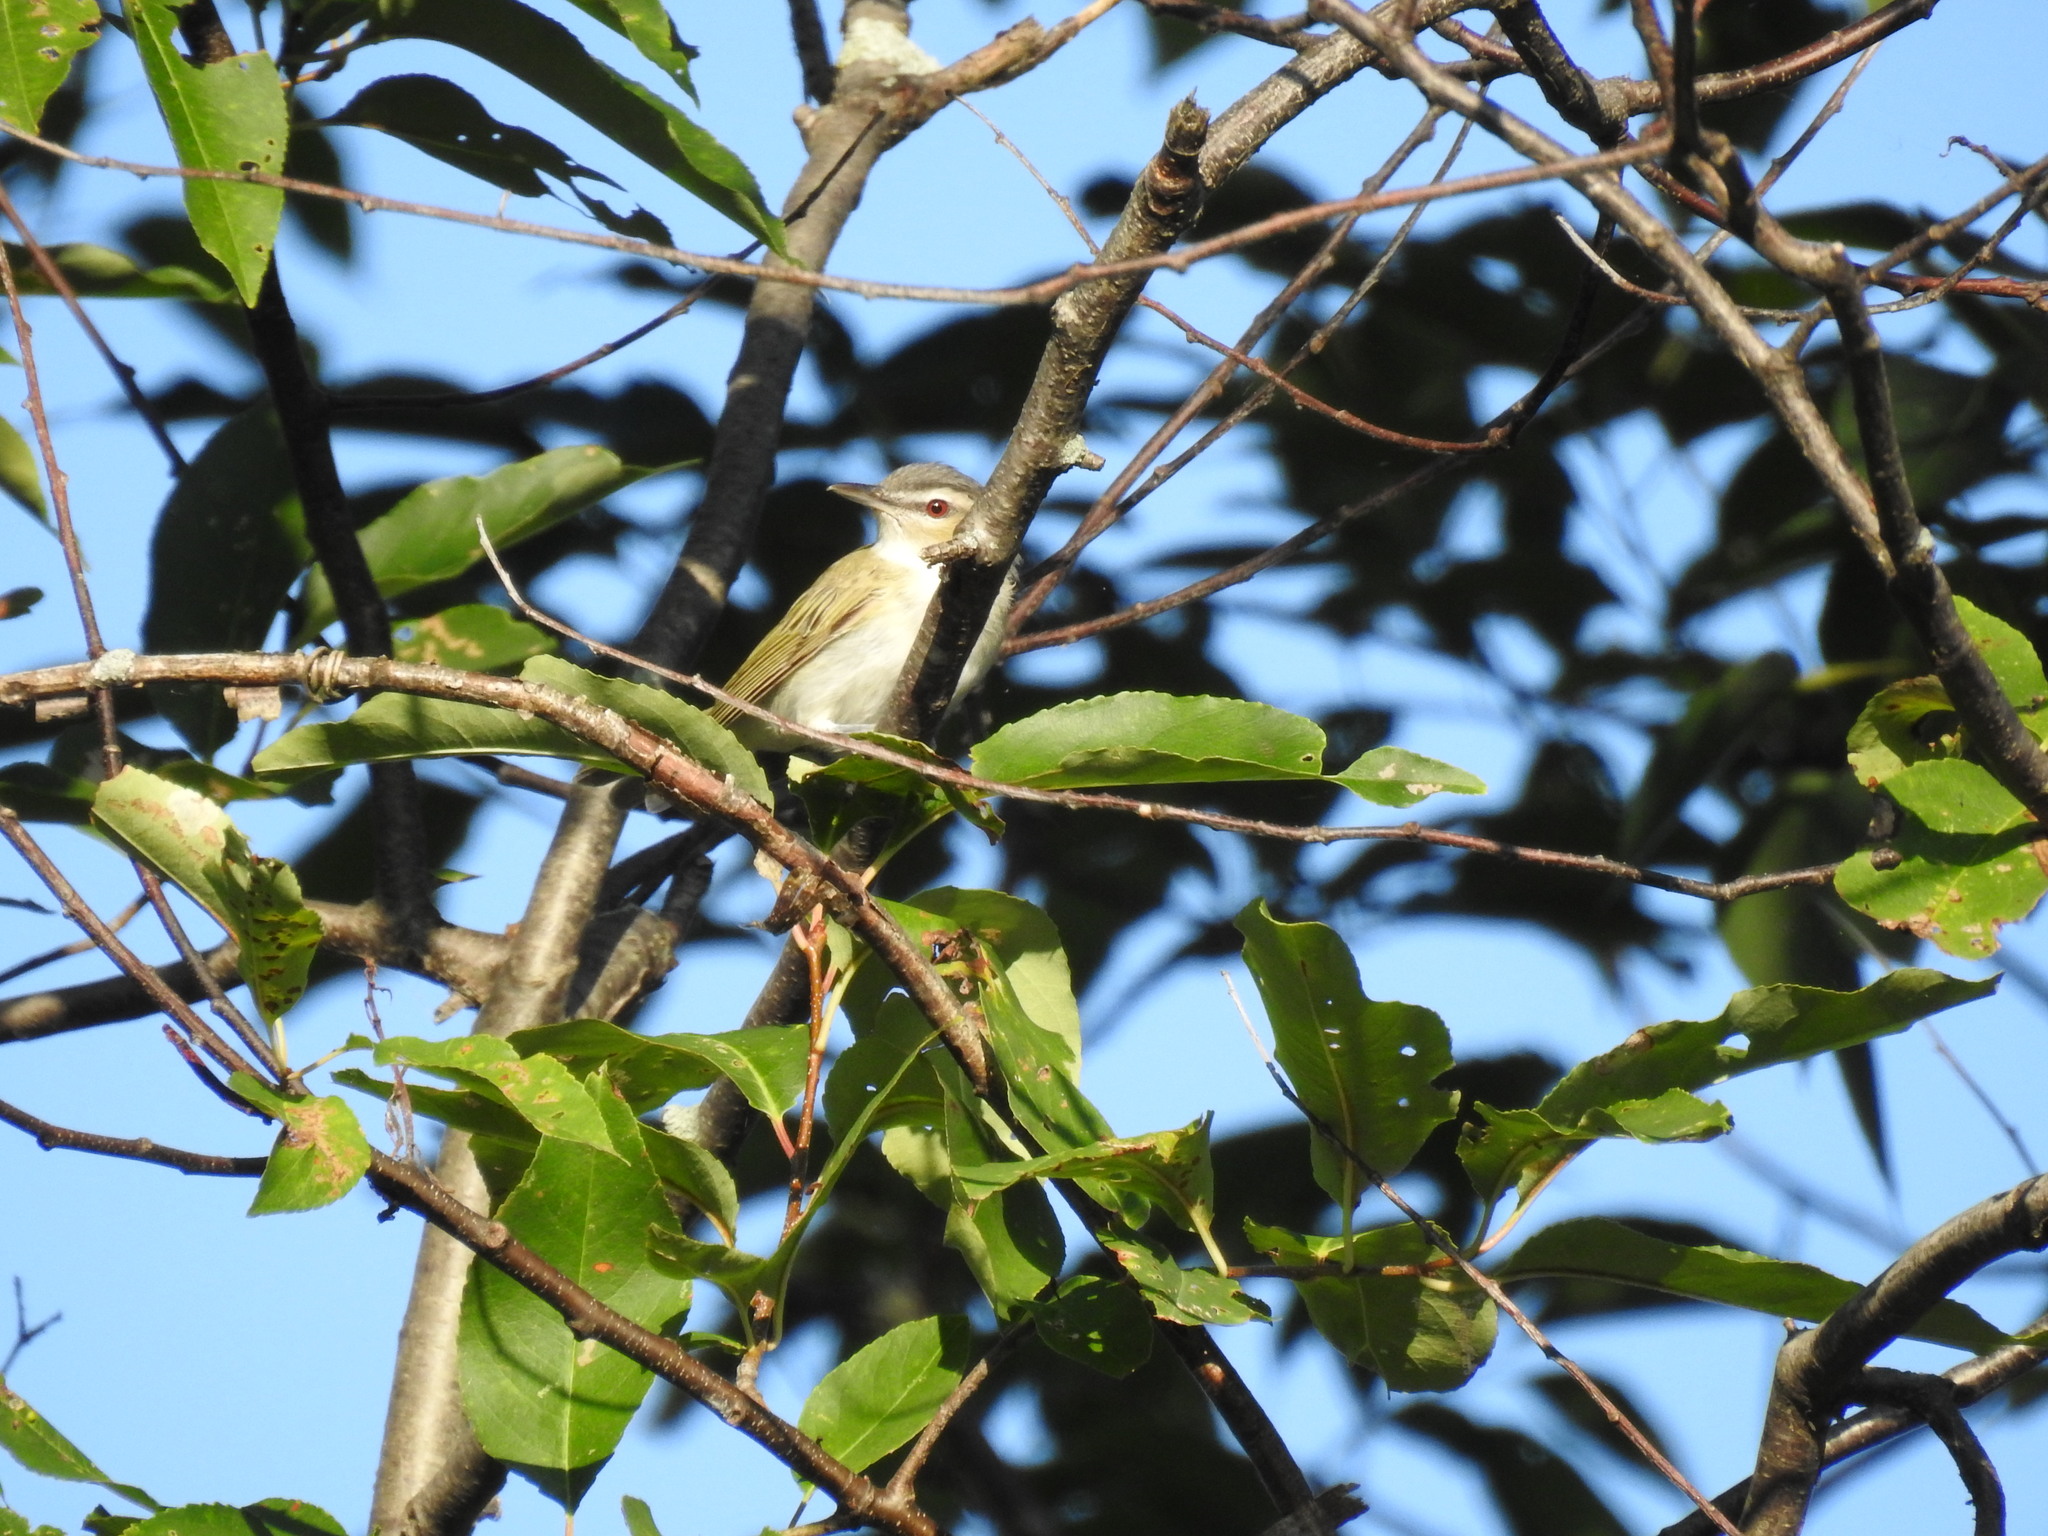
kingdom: Animalia
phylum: Chordata
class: Aves
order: Passeriformes
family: Vireonidae
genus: Vireo
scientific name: Vireo olivaceus
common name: Red-eyed vireo
